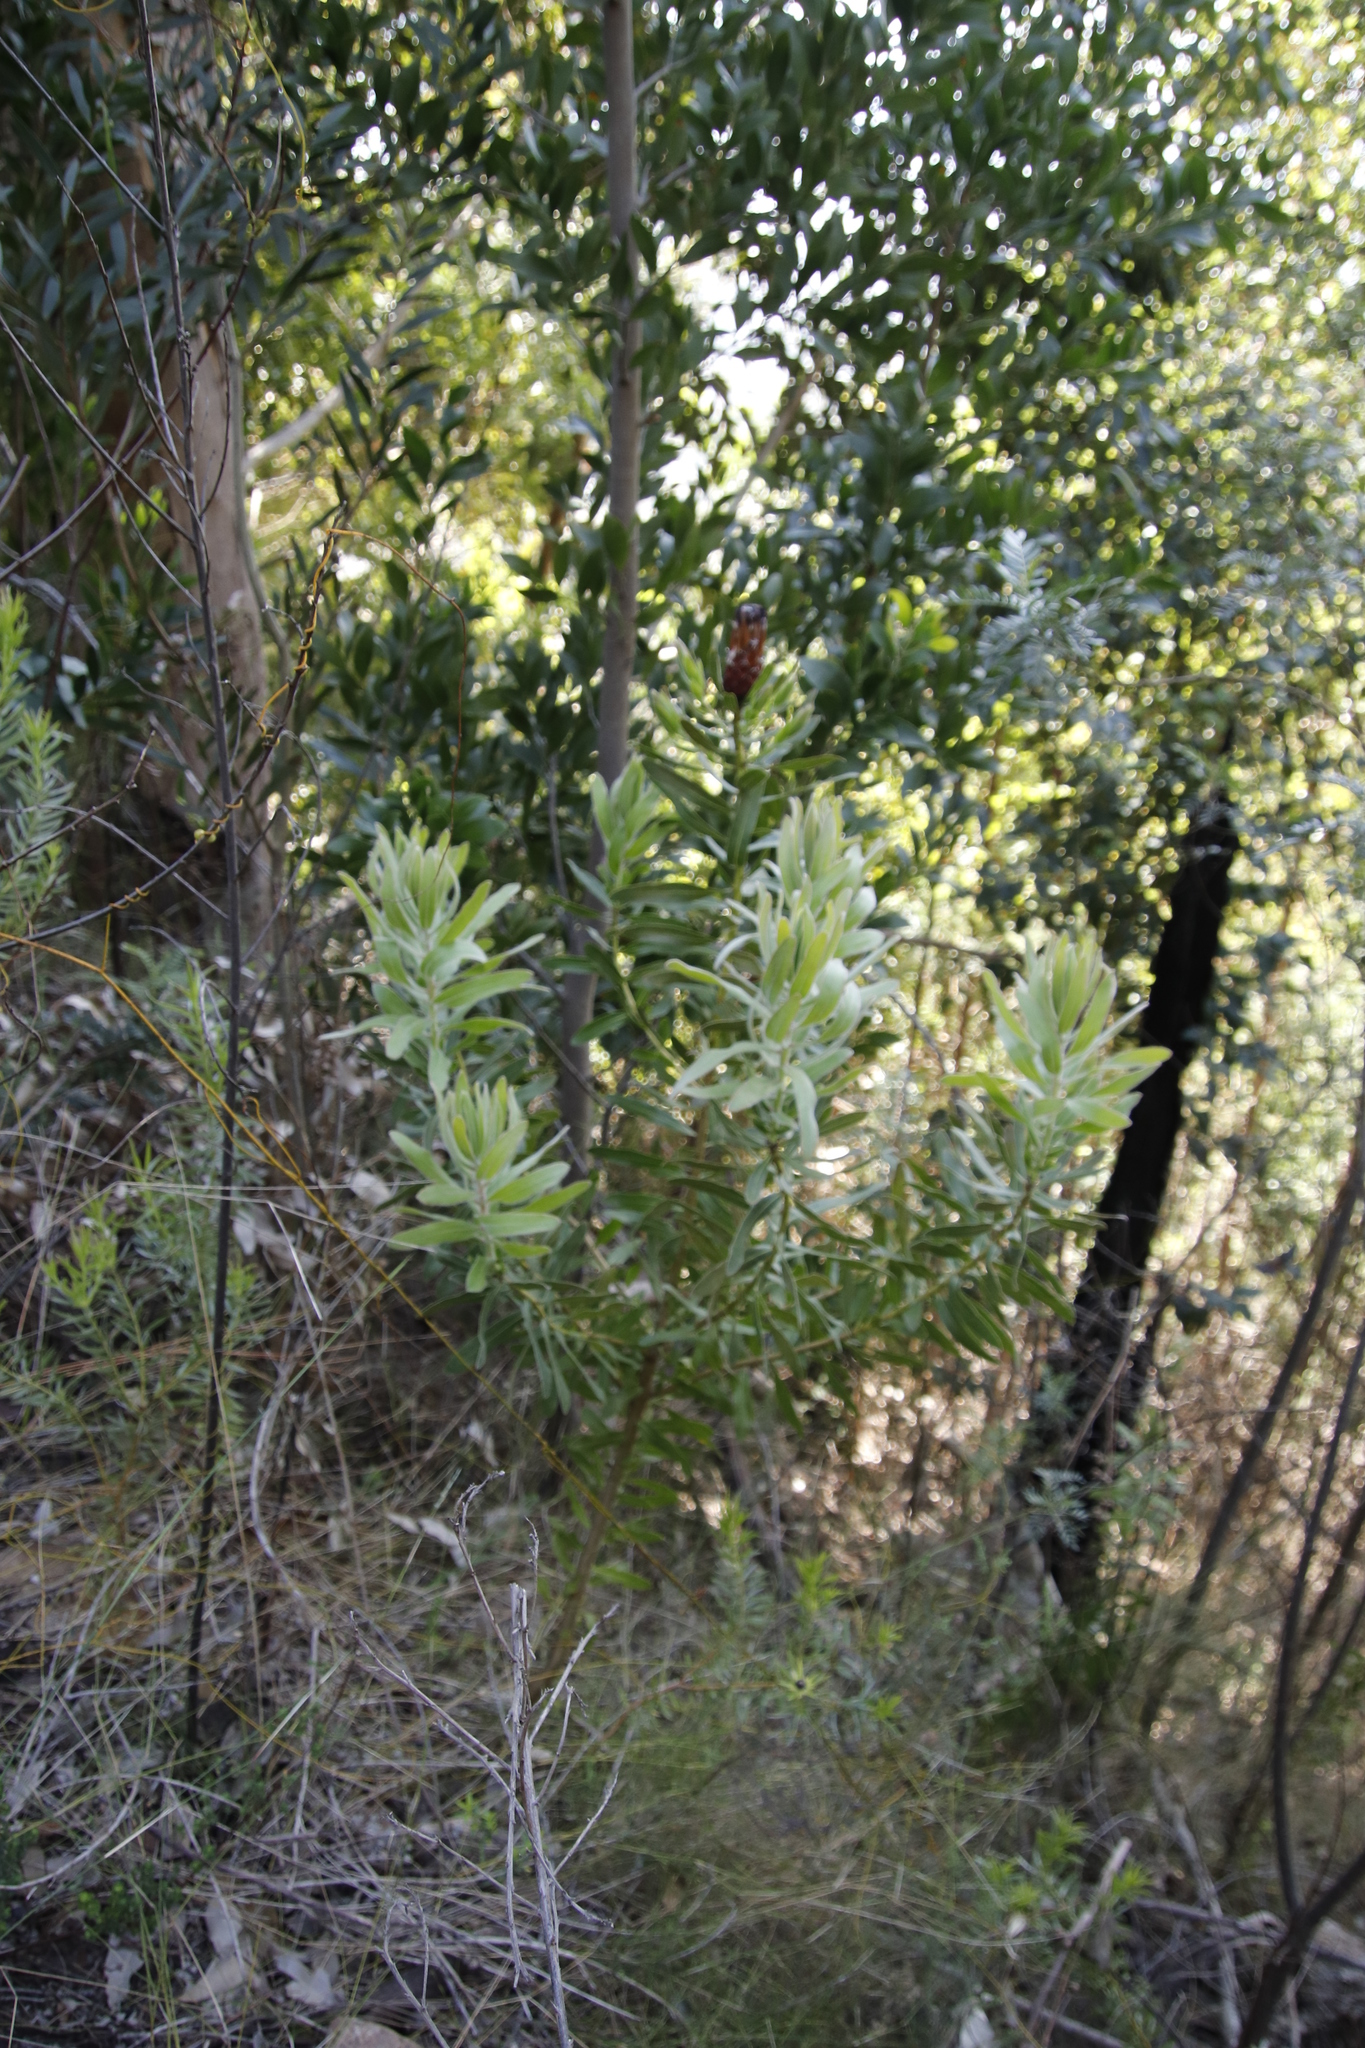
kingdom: Plantae
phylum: Tracheophyta
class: Magnoliopsida
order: Proteales
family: Proteaceae
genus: Protea
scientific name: Protea lepidocarpodendron
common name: Black-bearded protea
